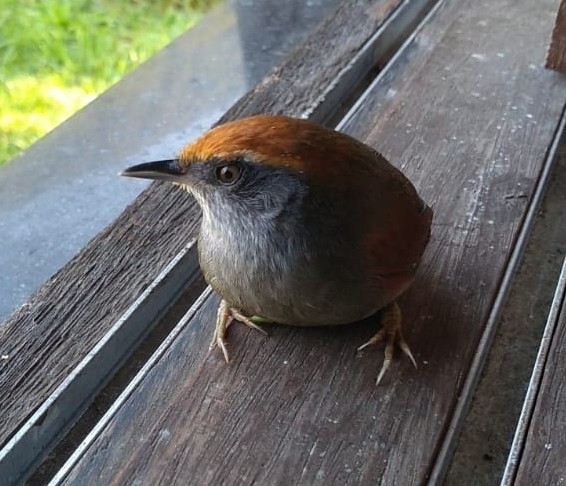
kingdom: Animalia
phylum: Chordata
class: Aves
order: Passeriformes
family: Furnariidae
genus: Synallaxis
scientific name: Synallaxis ruficapilla
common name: Rufous-capped spinetail
